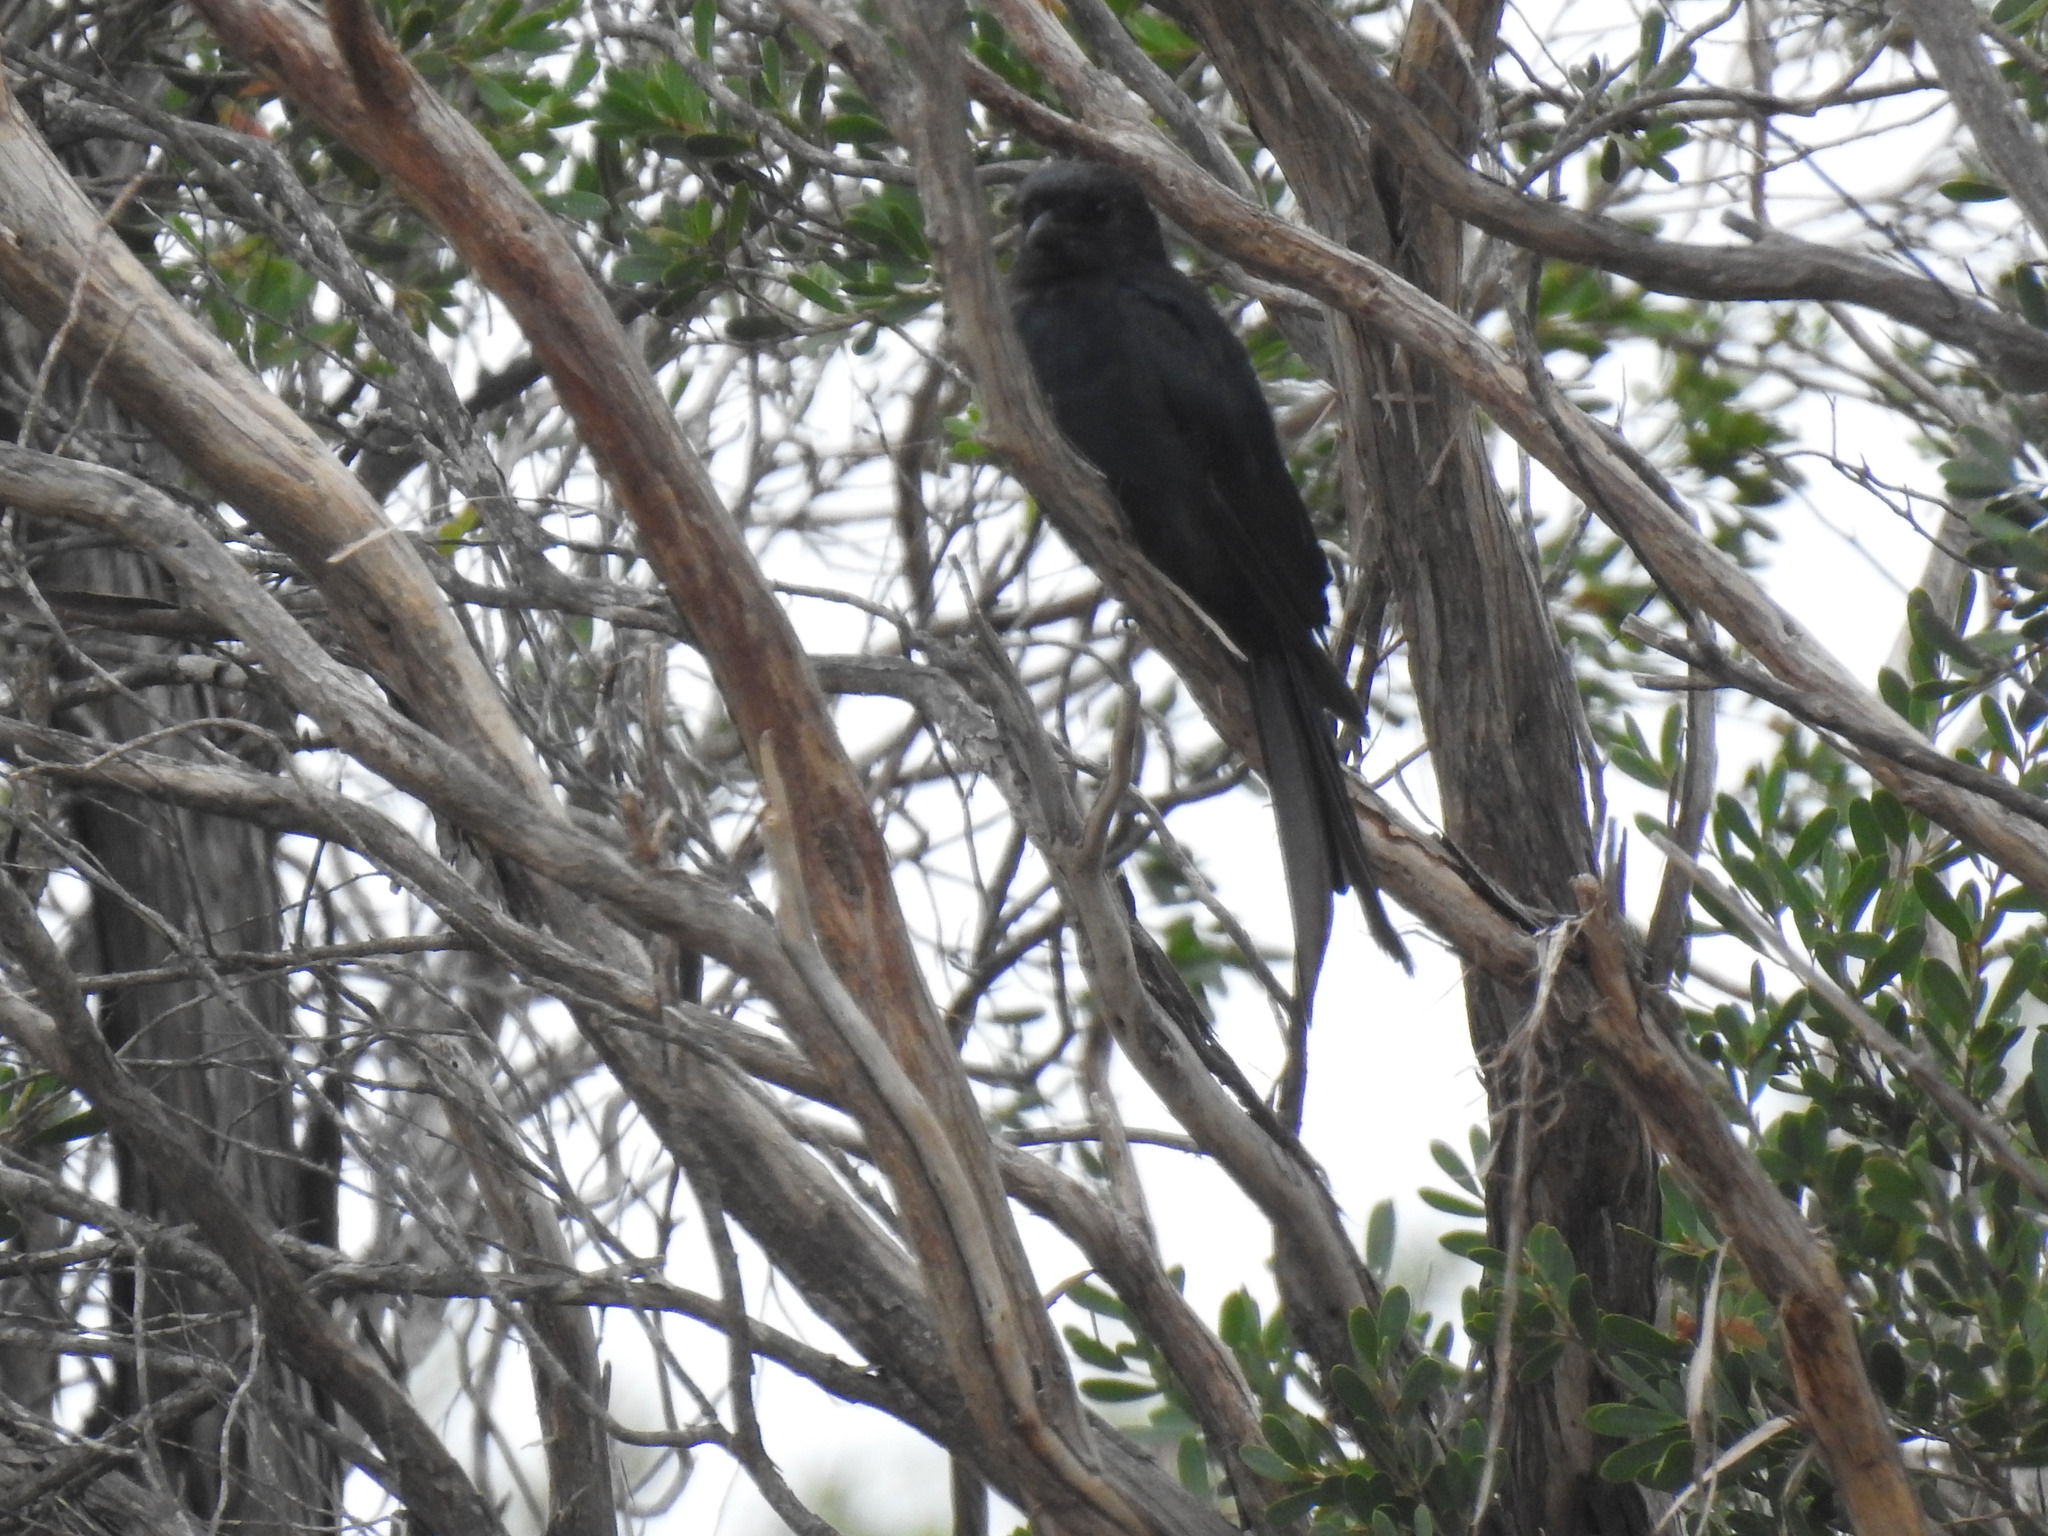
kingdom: Animalia
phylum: Chordata
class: Aves
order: Passeriformes
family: Dicruridae
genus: Dicrurus
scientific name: Dicrurus adsimilis
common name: Fork-tailed drongo
